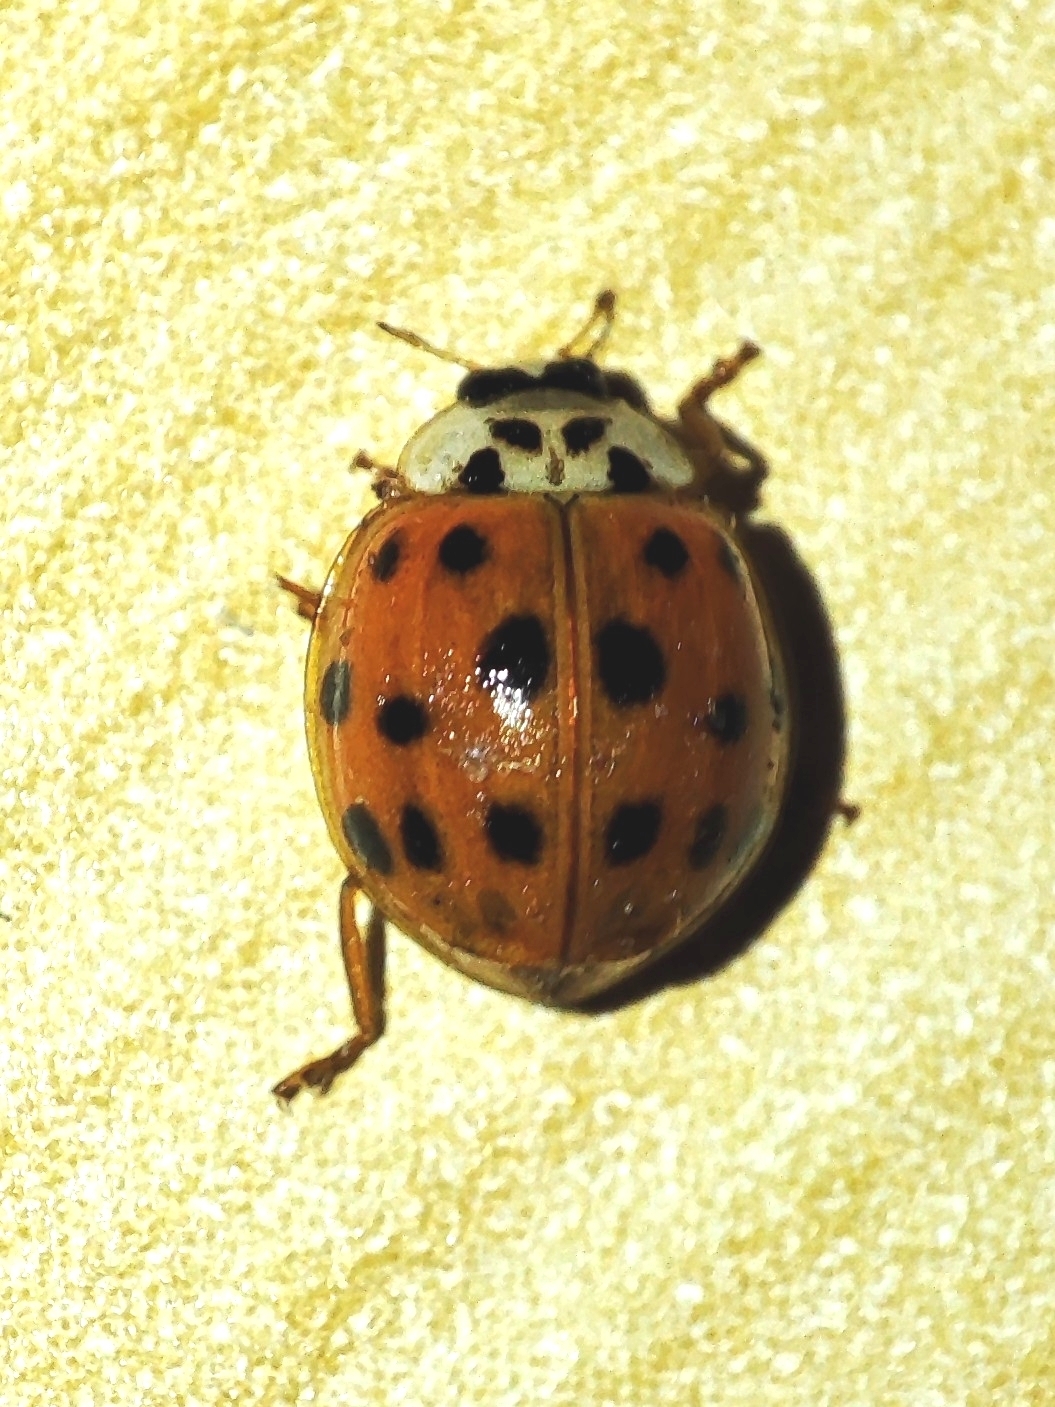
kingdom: Animalia
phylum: Arthropoda
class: Insecta
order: Coleoptera
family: Coccinellidae
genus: Harmonia
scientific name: Harmonia axyridis
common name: Harlequin ladybird
